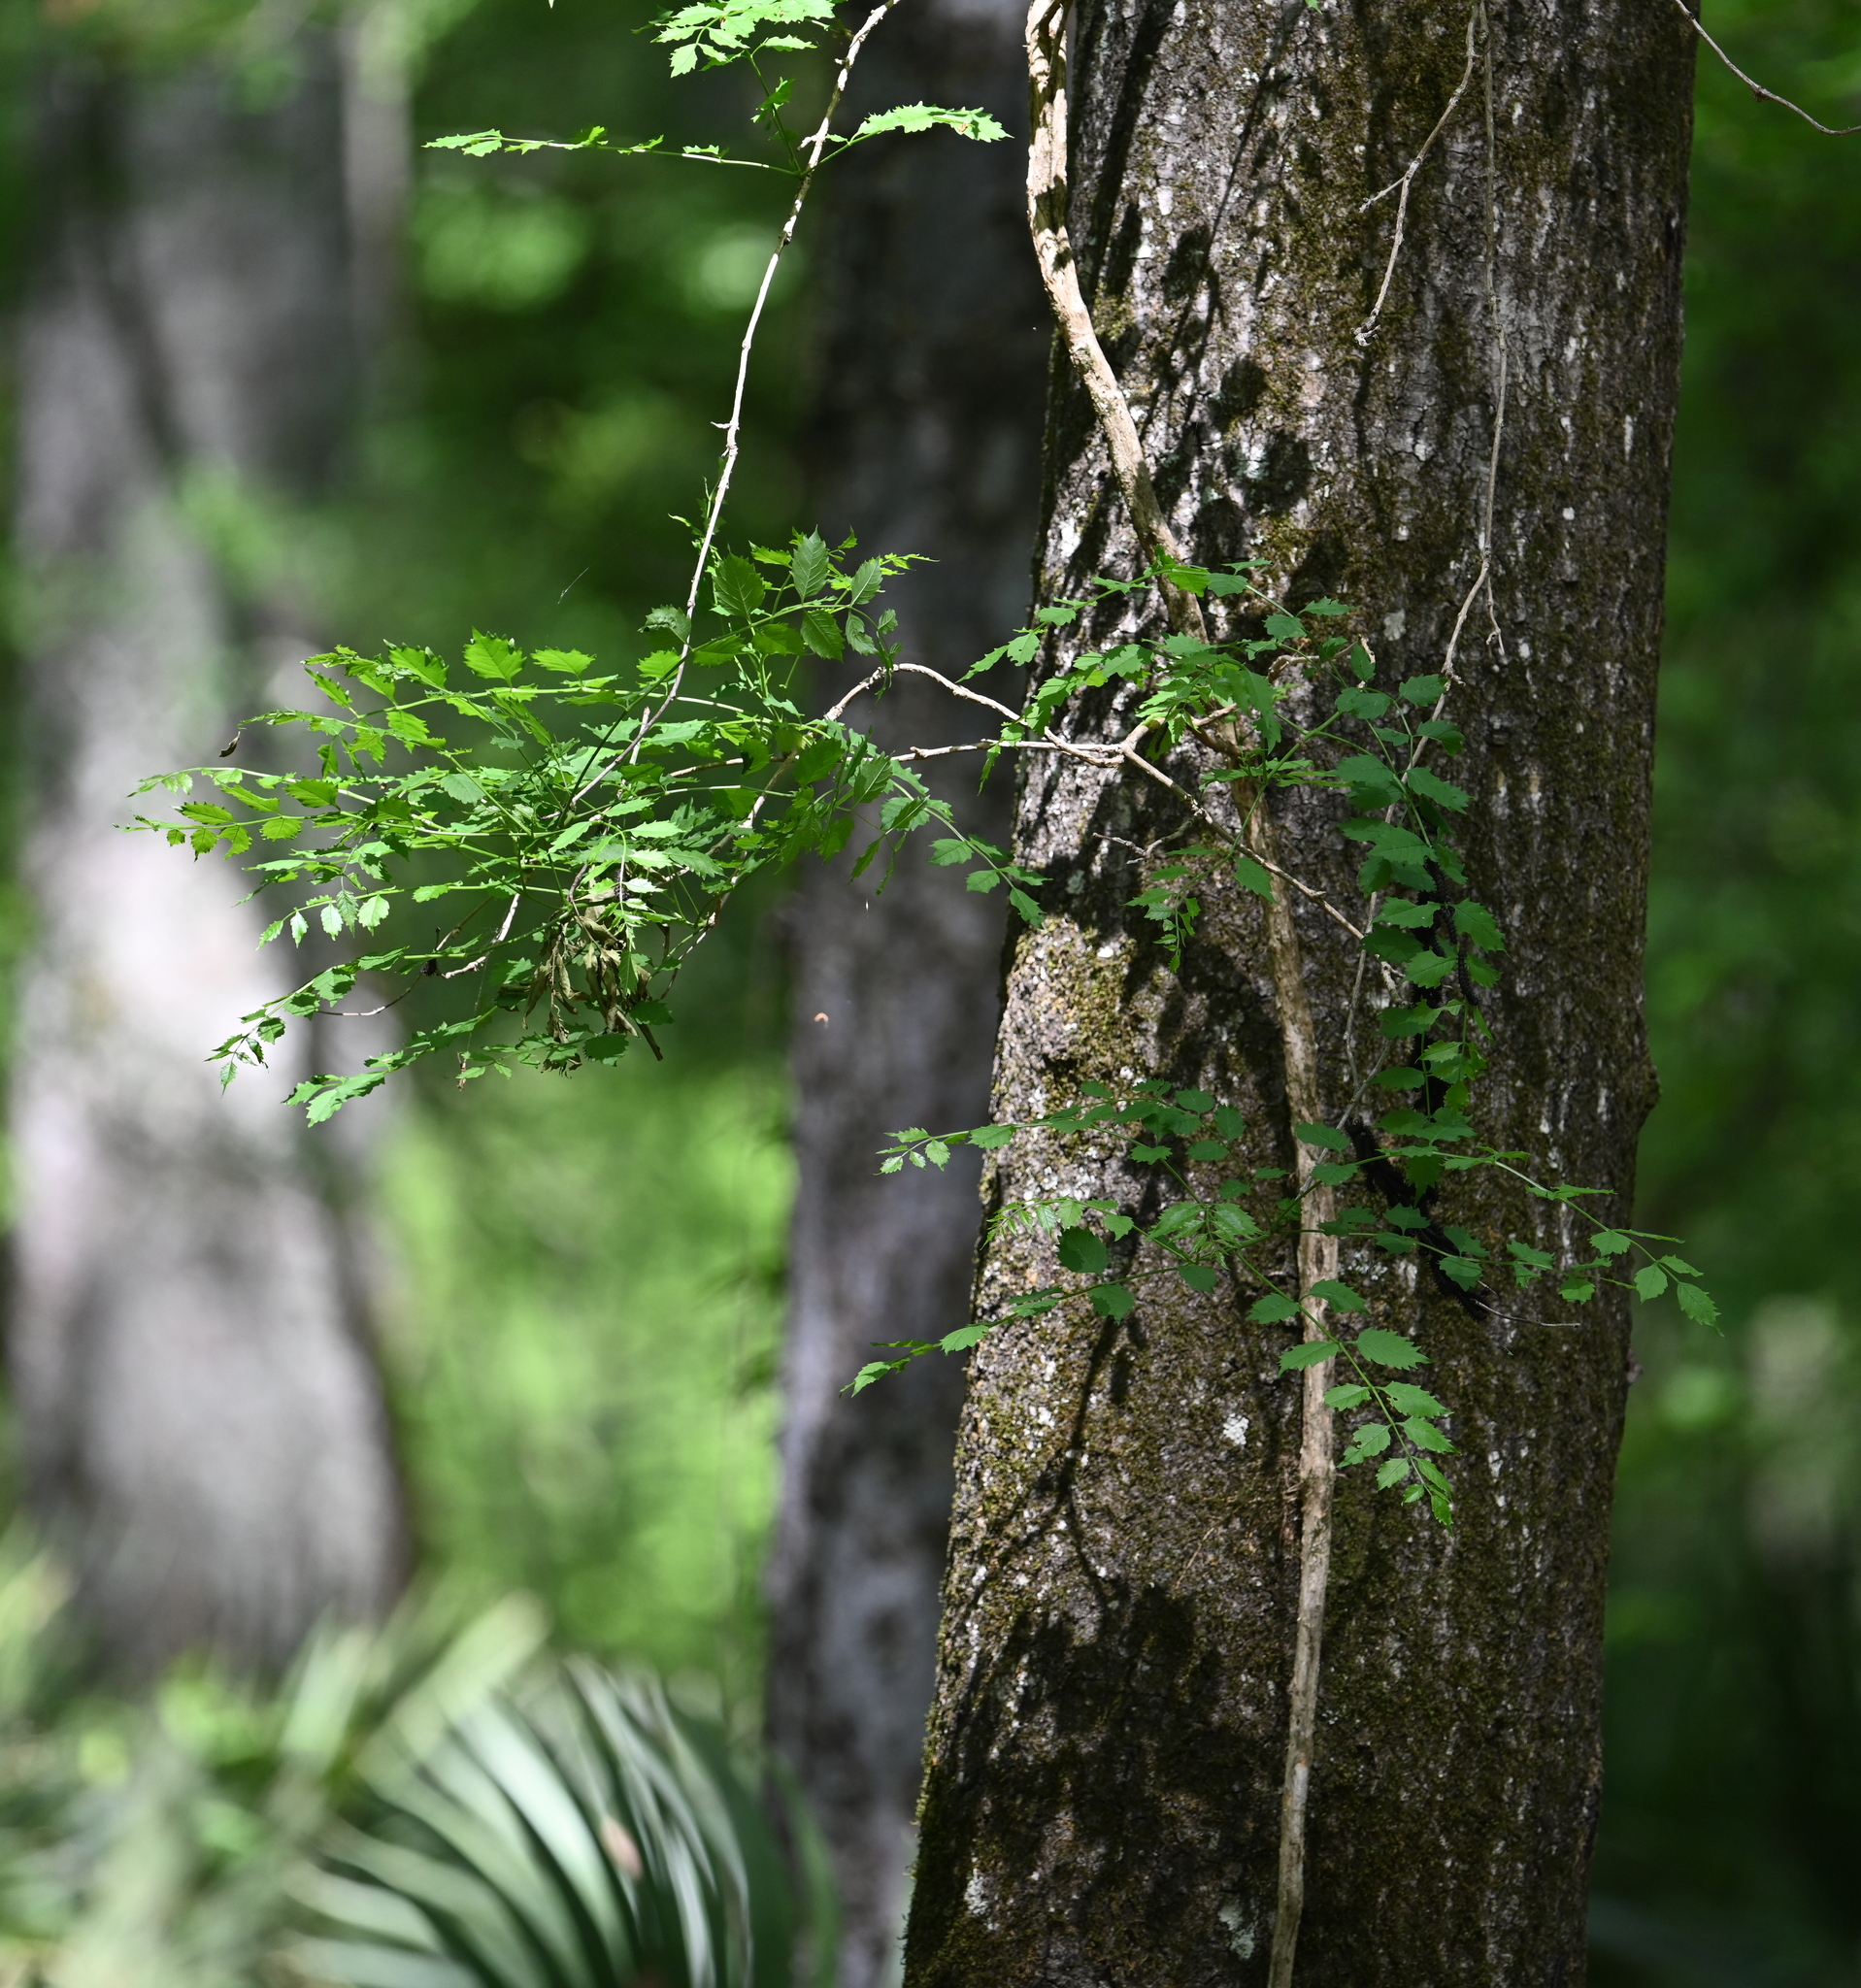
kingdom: Plantae
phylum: Tracheophyta
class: Magnoliopsida
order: Lamiales
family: Bignoniaceae
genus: Campsis
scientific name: Campsis radicans
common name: Trumpet-creeper
